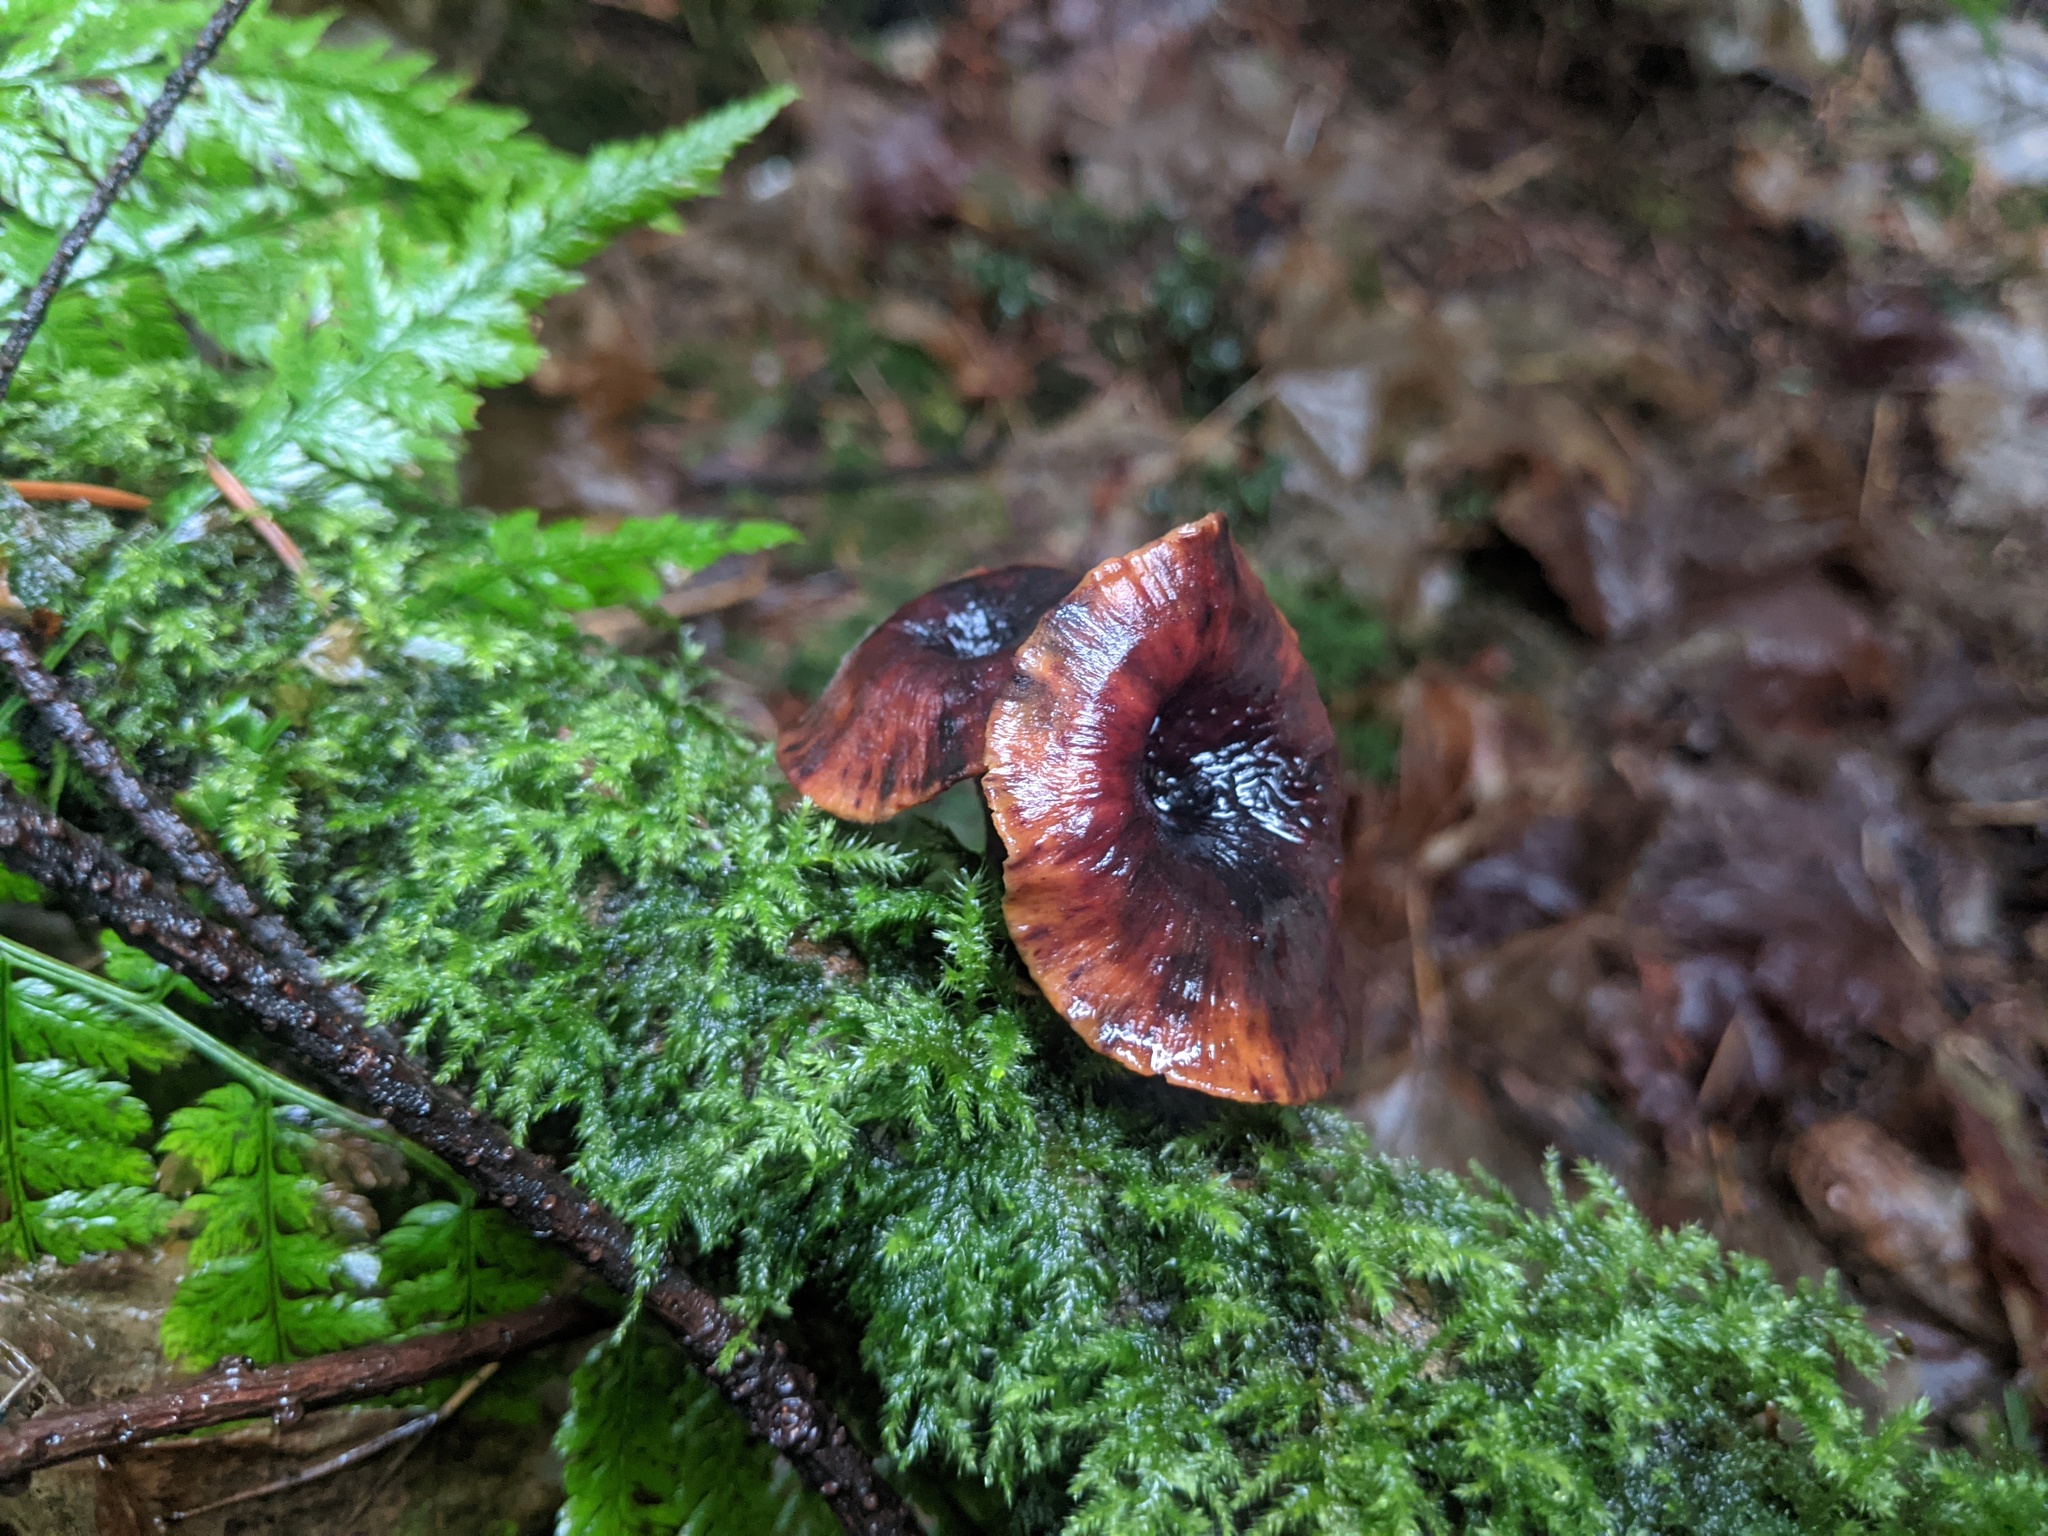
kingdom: Fungi
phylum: Basidiomycota
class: Agaricomycetes
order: Polyporales
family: Polyporaceae
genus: Picipes
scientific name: Picipes badius
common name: Bay polypore
